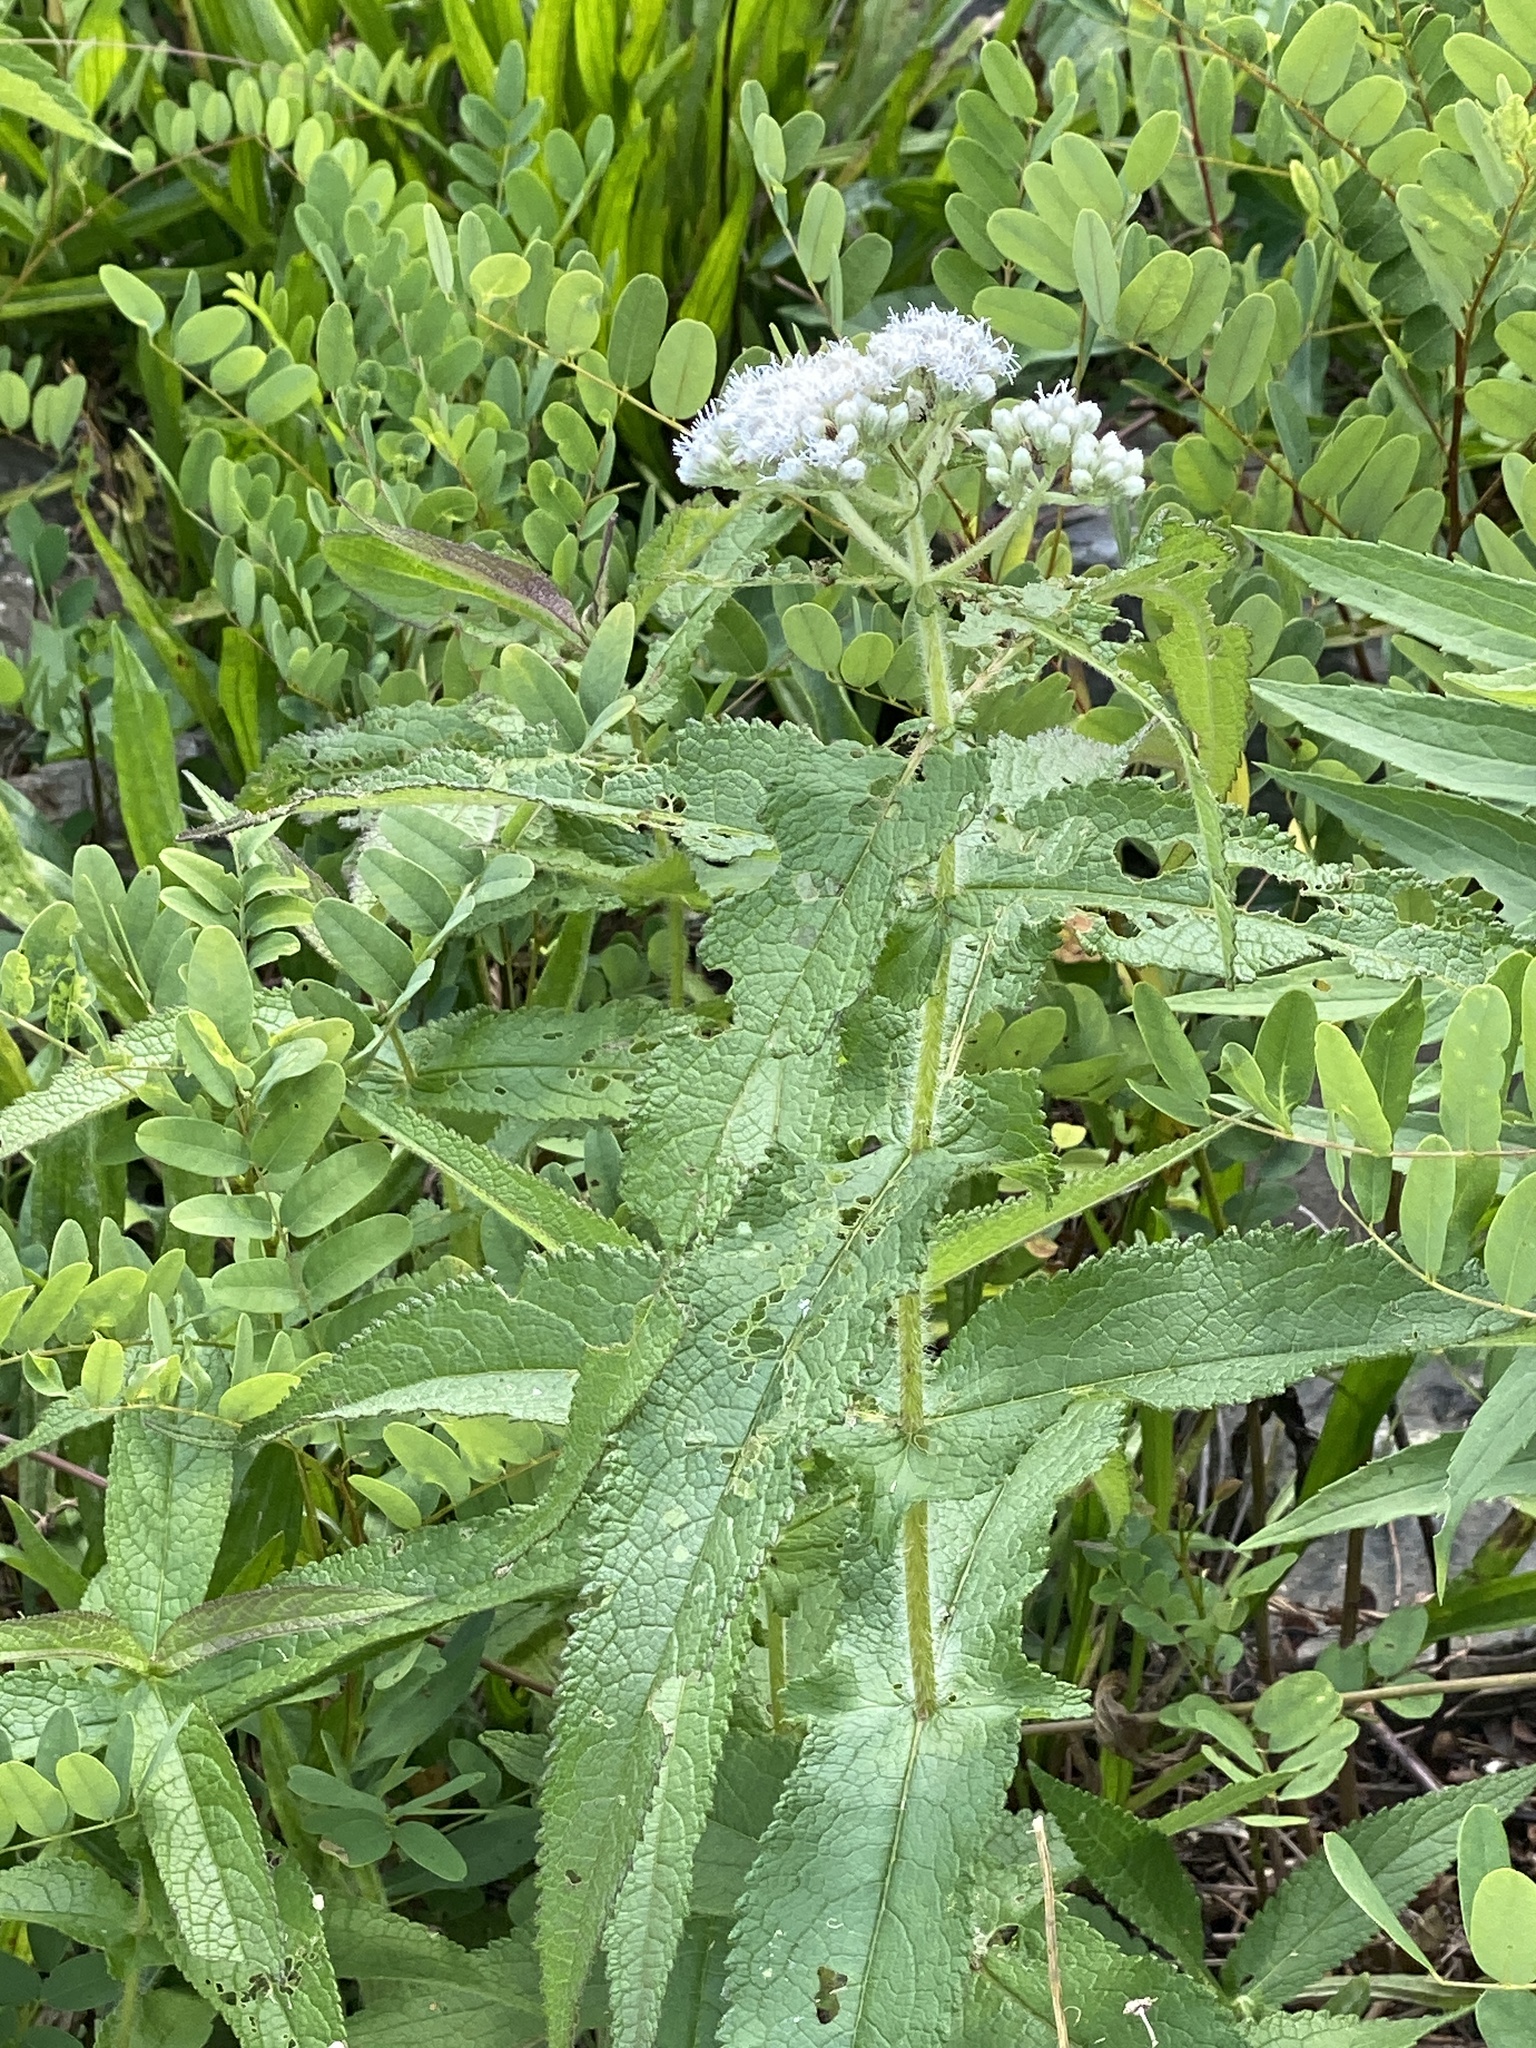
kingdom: Plantae
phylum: Tracheophyta
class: Magnoliopsida
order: Asterales
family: Asteraceae
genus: Eupatorium
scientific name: Eupatorium perfoliatum
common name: Boneset
